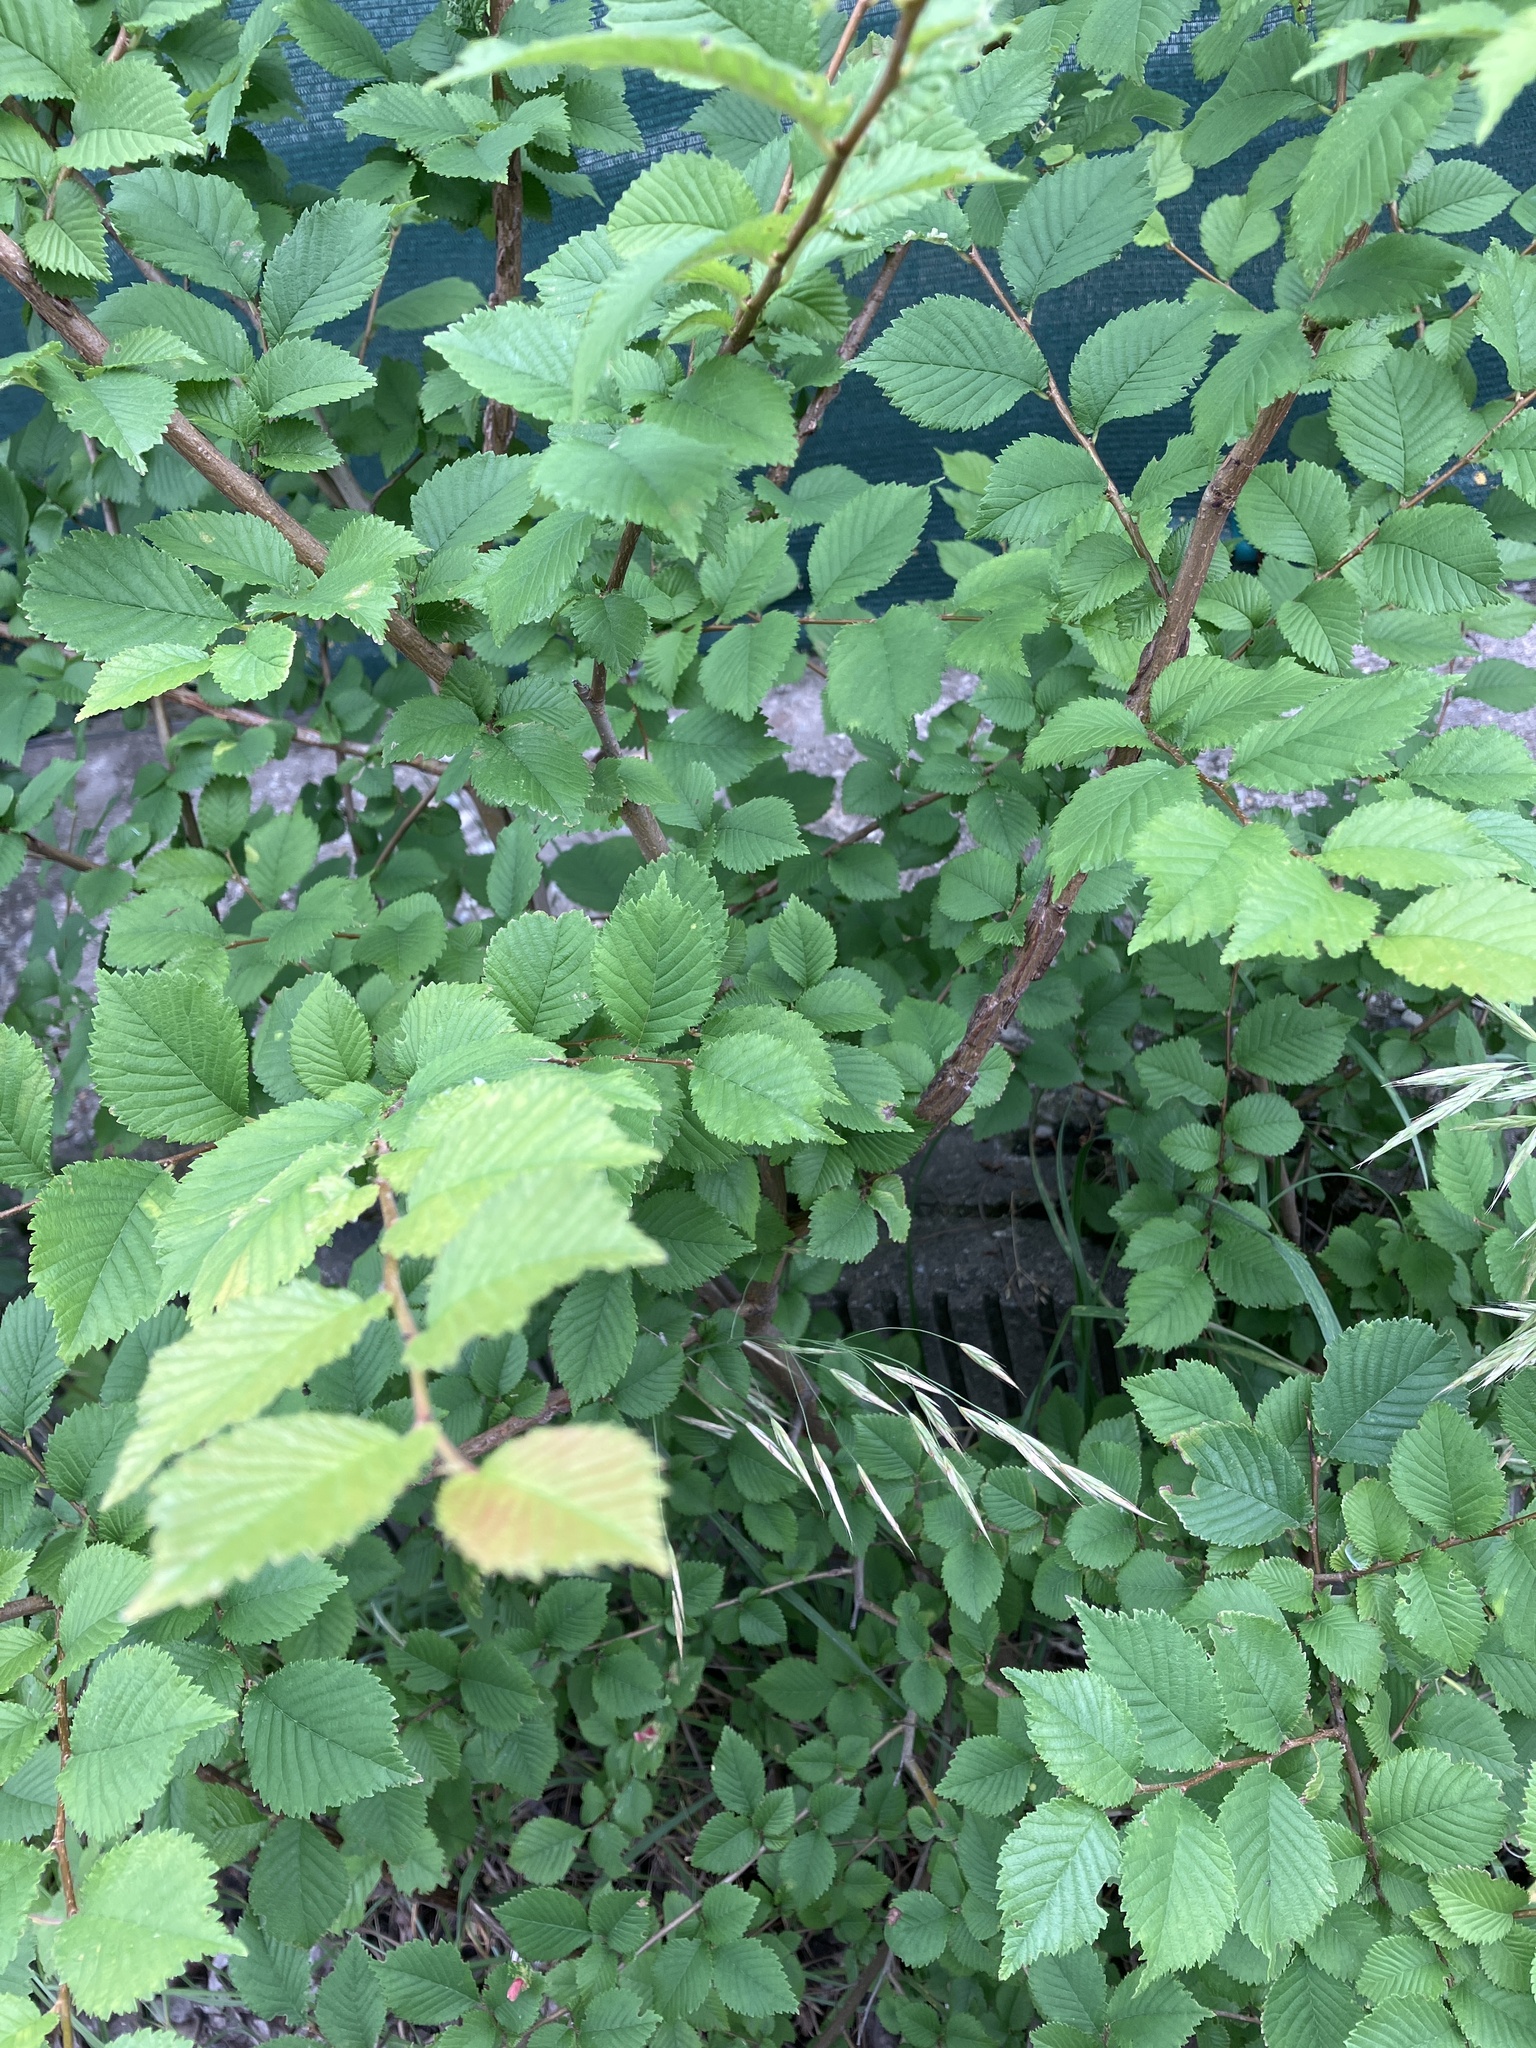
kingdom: Plantae
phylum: Tracheophyta
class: Magnoliopsida
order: Rosales
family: Ulmaceae
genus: Ulmus
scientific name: Ulmus minor
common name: Small-leaved elm
